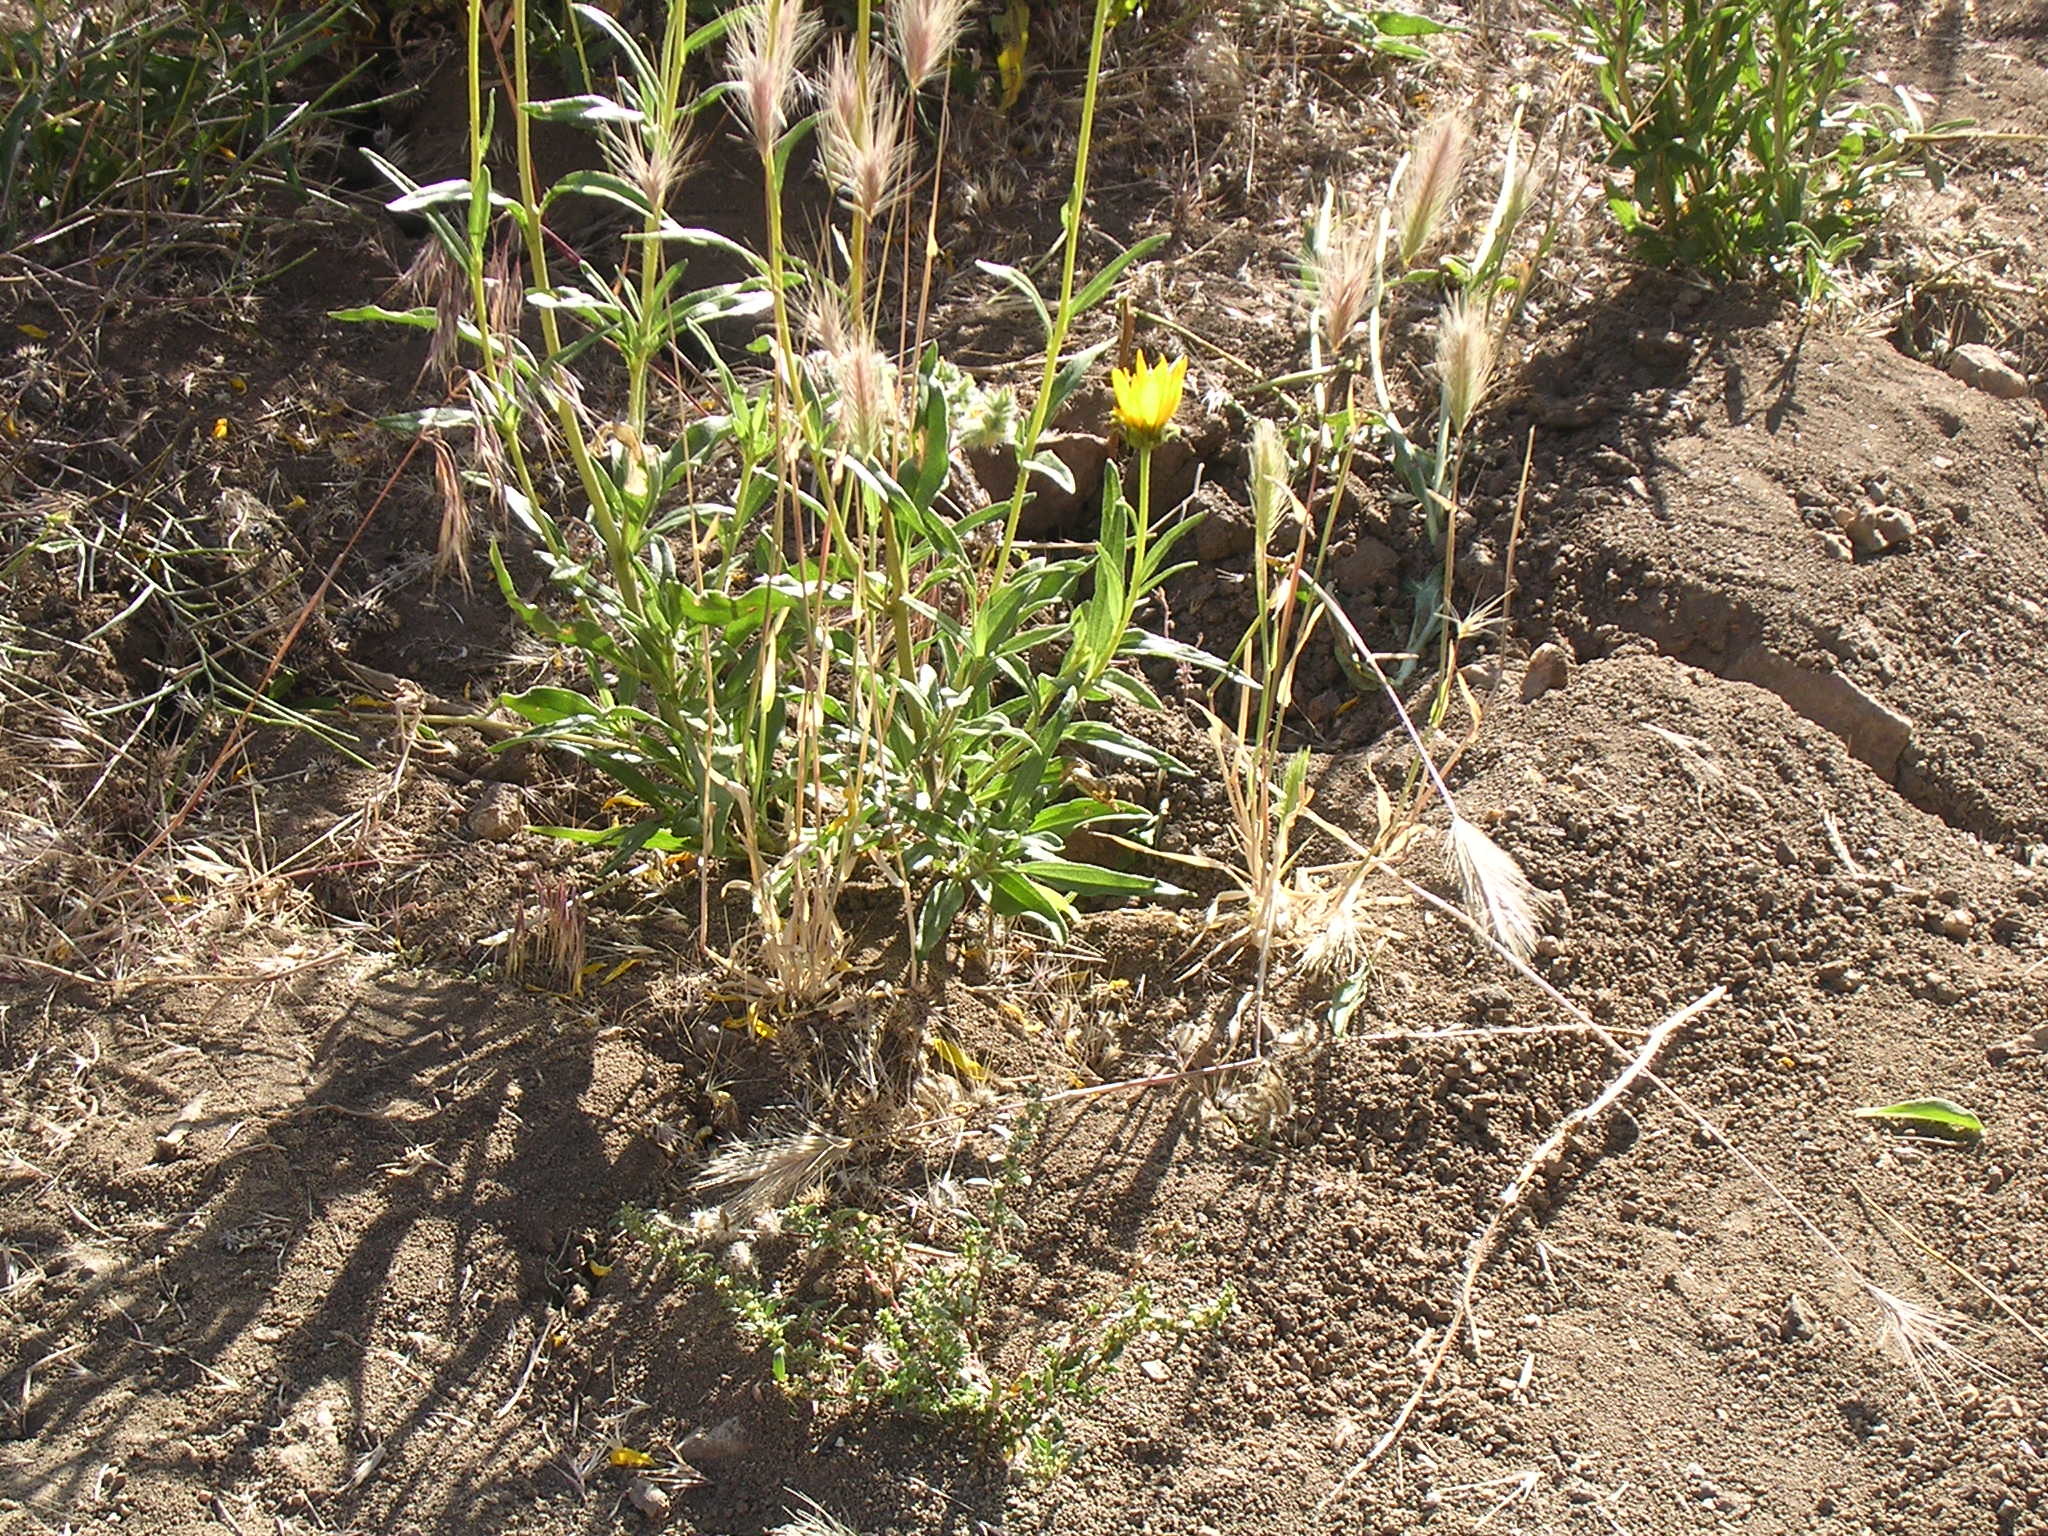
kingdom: Plantae
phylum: Tracheophyta
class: Magnoliopsida
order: Asterales
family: Asteraceae
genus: Helianthus
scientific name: Helianthus cusickii
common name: Cusick's sunflower
